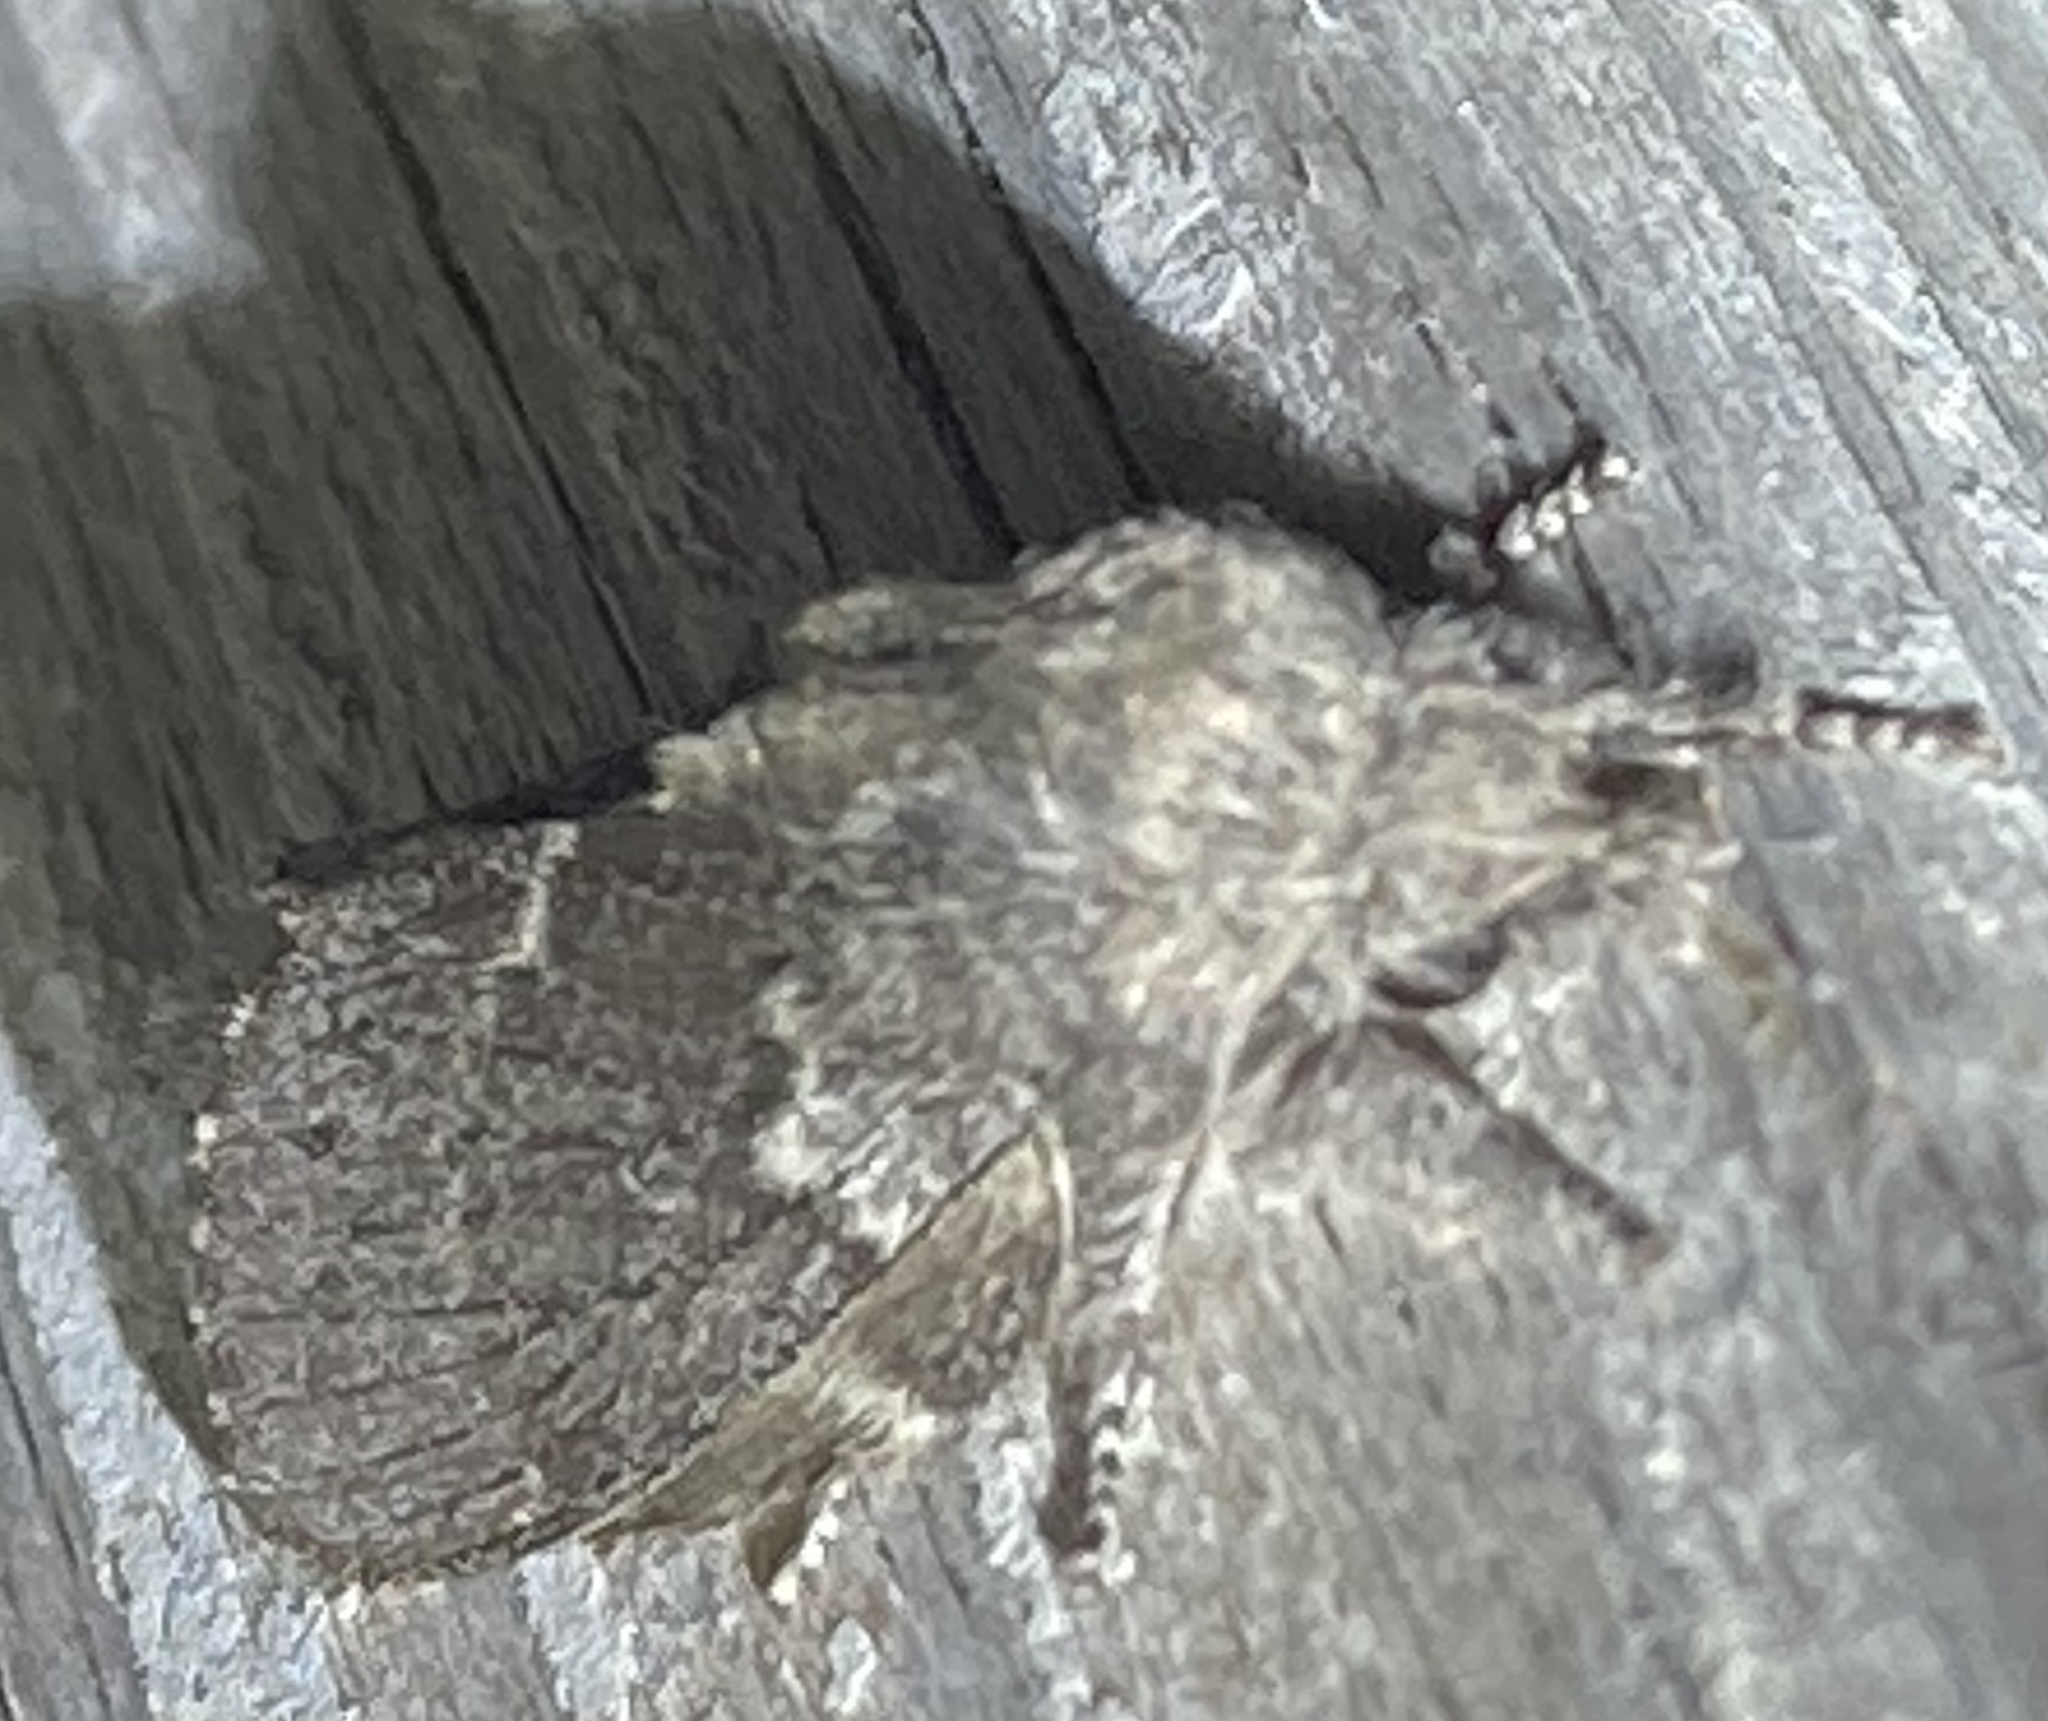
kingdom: Animalia
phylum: Arthropoda
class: Insecta
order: Lepidoptera
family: Lasiocampidae
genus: Heteropacha
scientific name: Heteropacha rileyana
